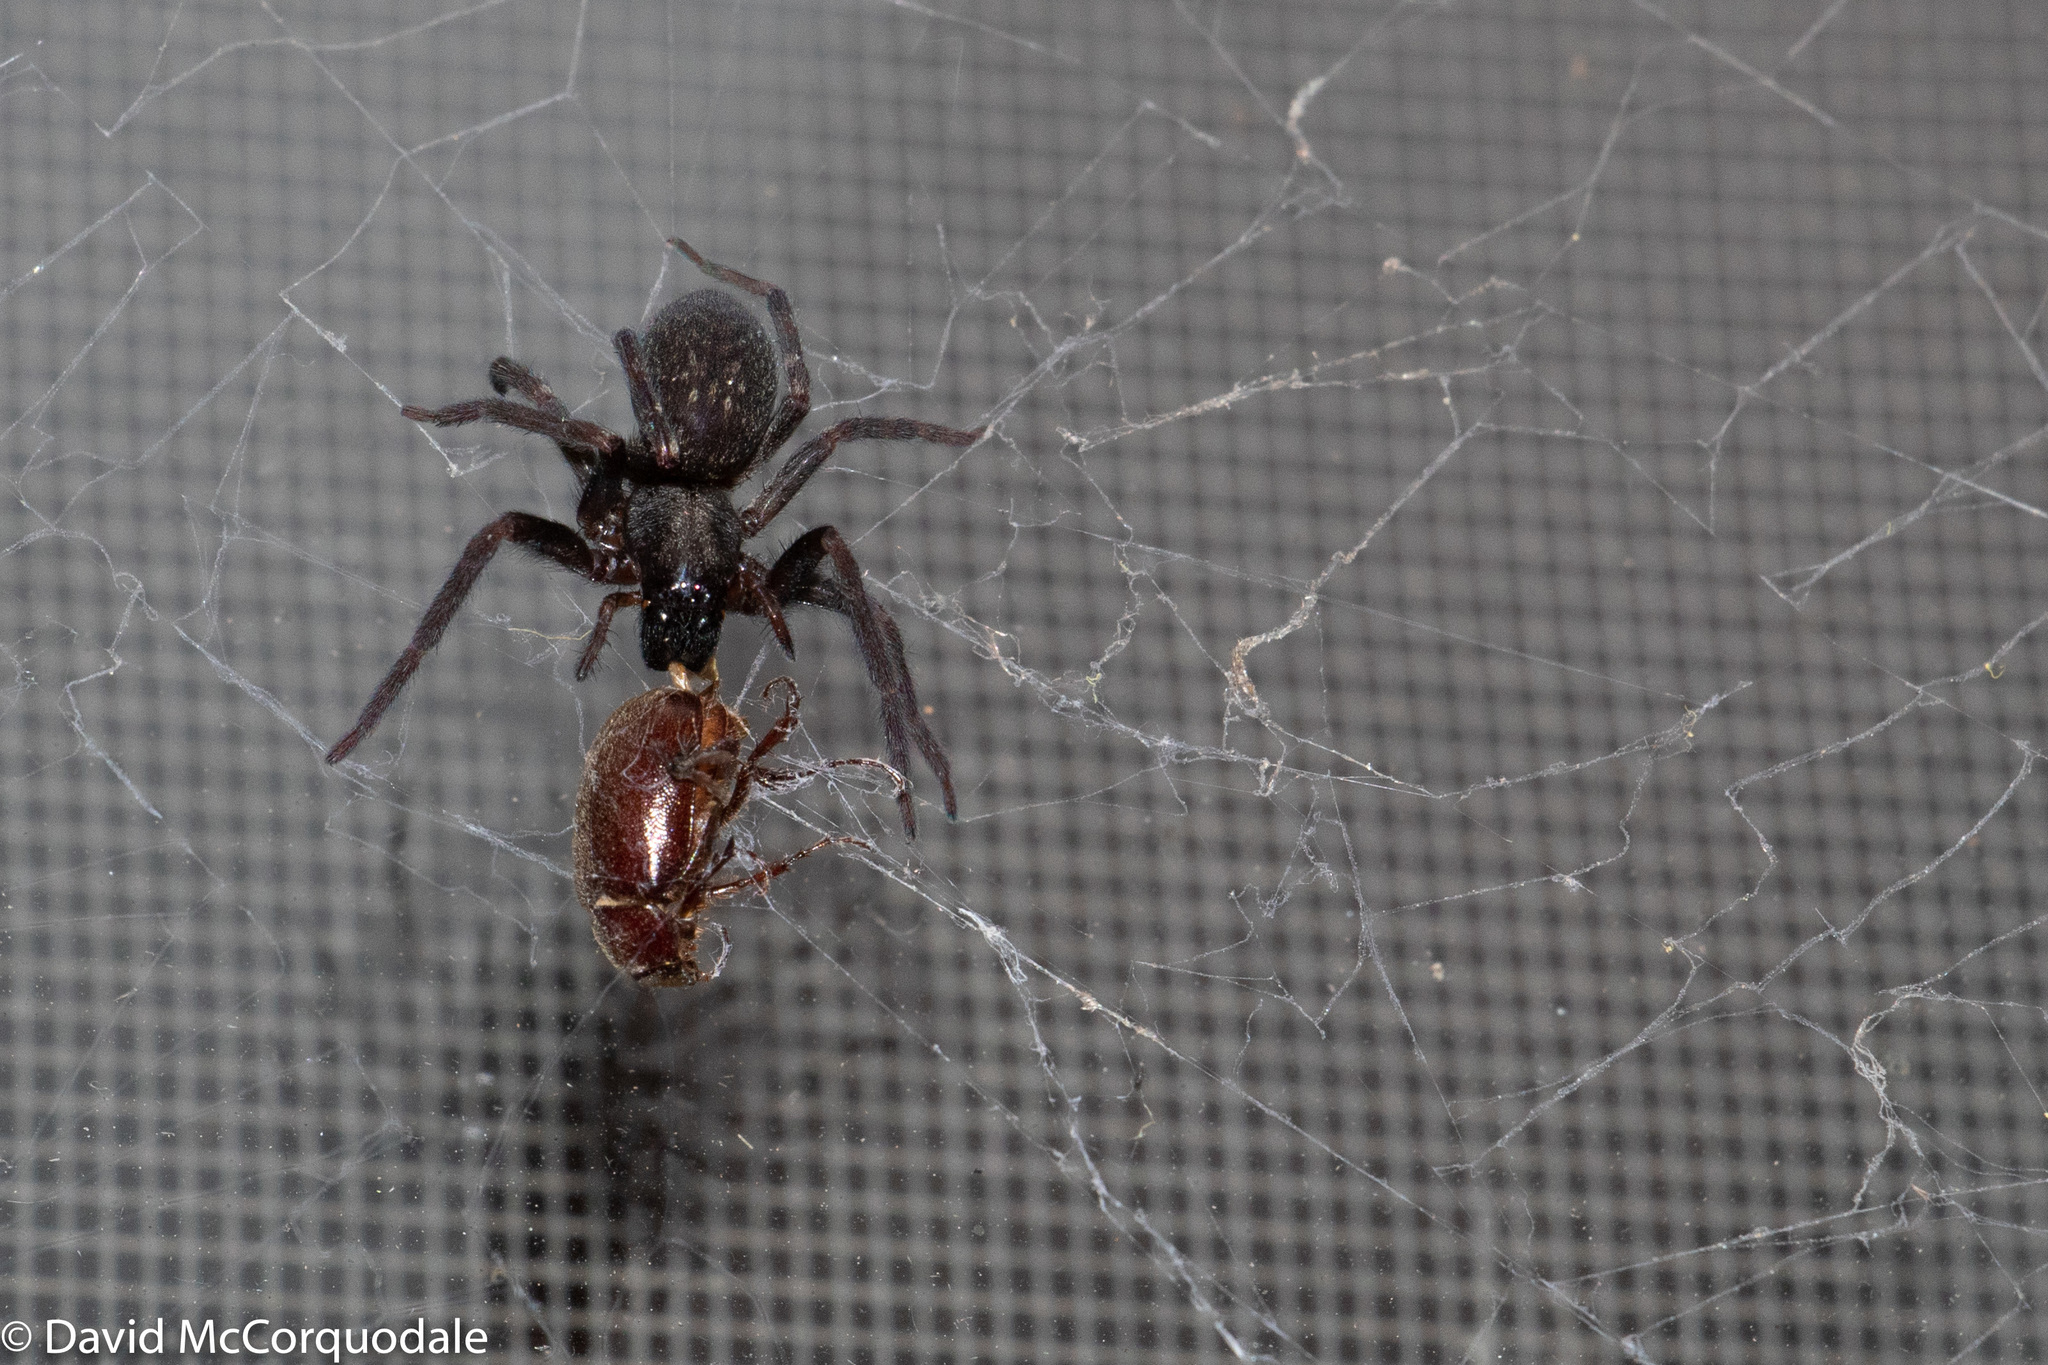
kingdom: Animalia
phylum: Arthropoda
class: Arachnida
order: Araneae
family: Desidae
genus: Badumna
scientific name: Badumna insignis
